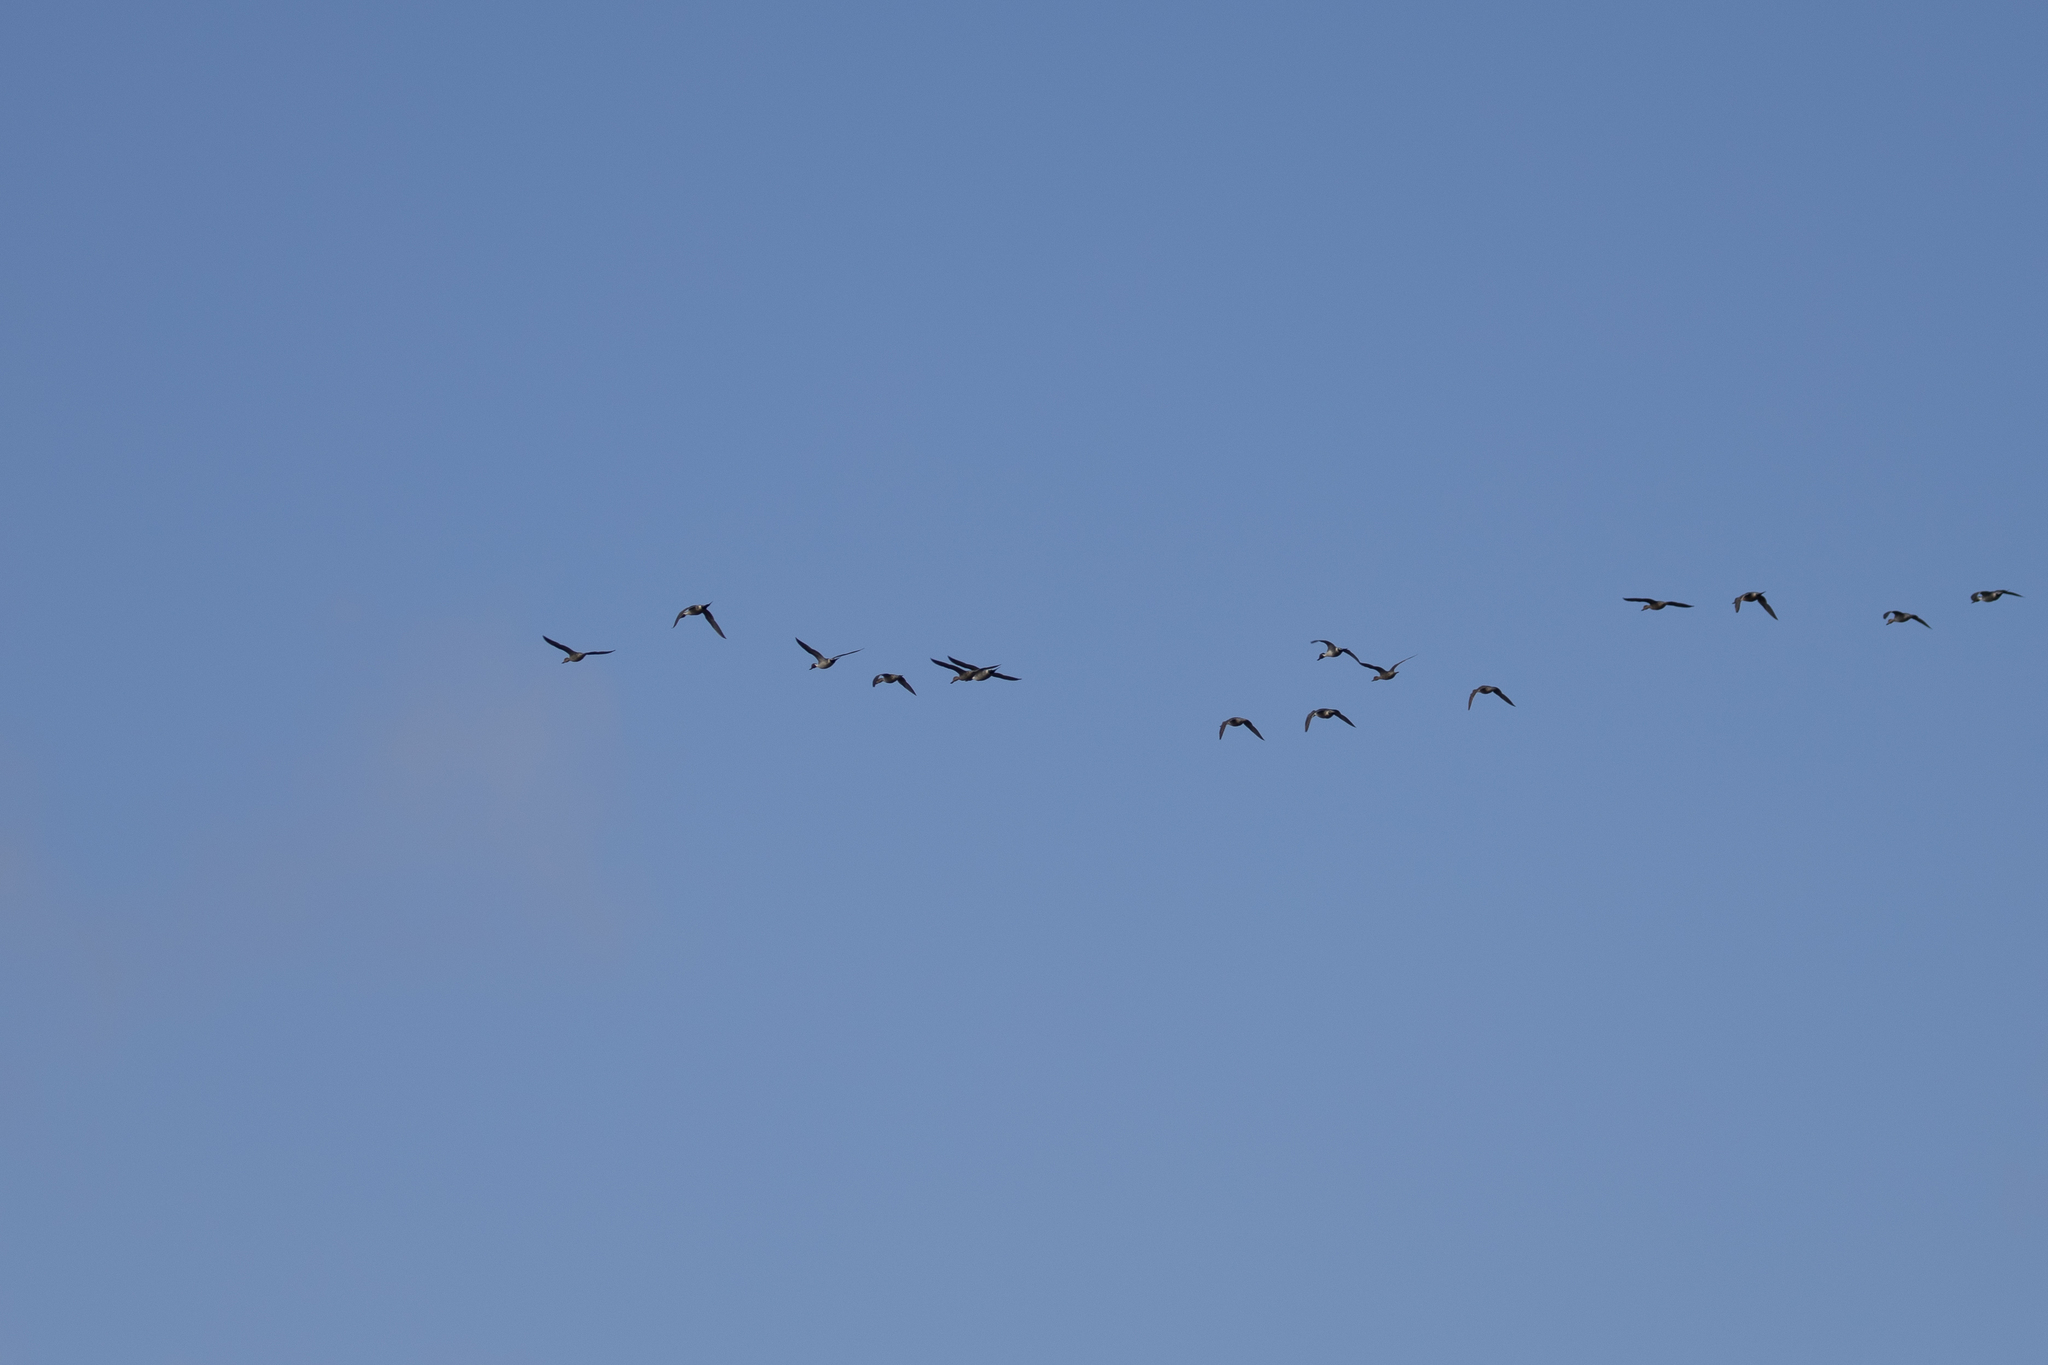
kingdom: Animalia
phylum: Chordata
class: Aves
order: Anseriformes
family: Anatidae
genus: Anas
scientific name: Anas acuta
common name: Northern pintail
